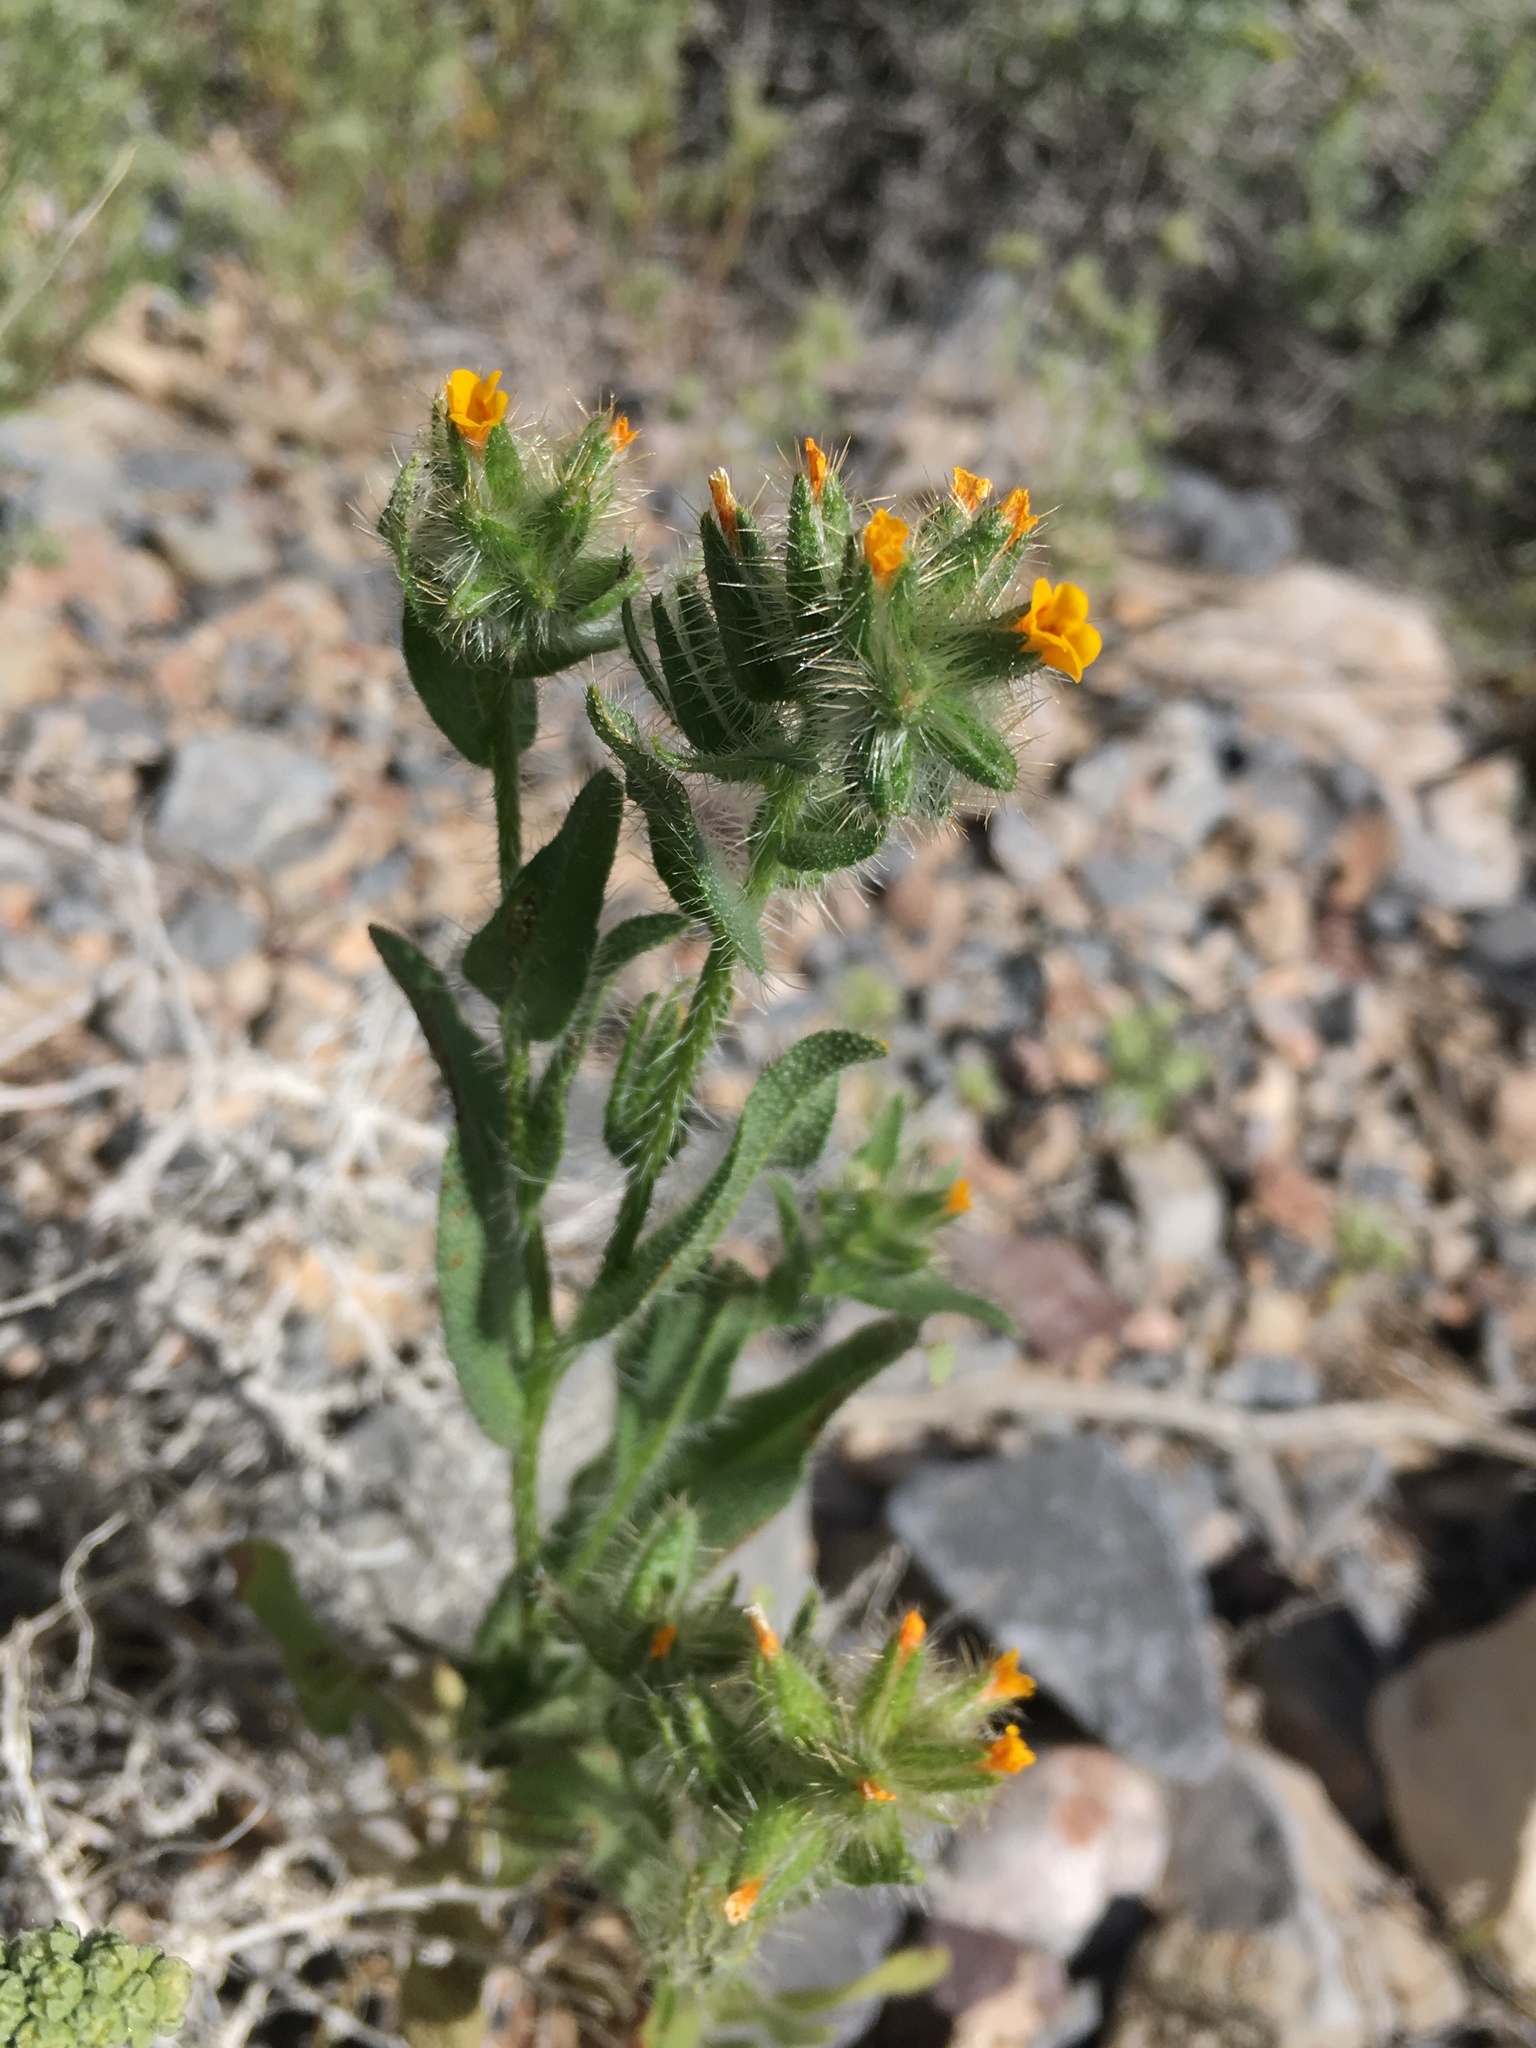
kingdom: Plantae
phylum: Tracheophyta
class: Magnoliopsida
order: Boraginales
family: Boraginaceae
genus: Amsinckia
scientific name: Amsinckia tessellata
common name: Tessellate fiddleneck
